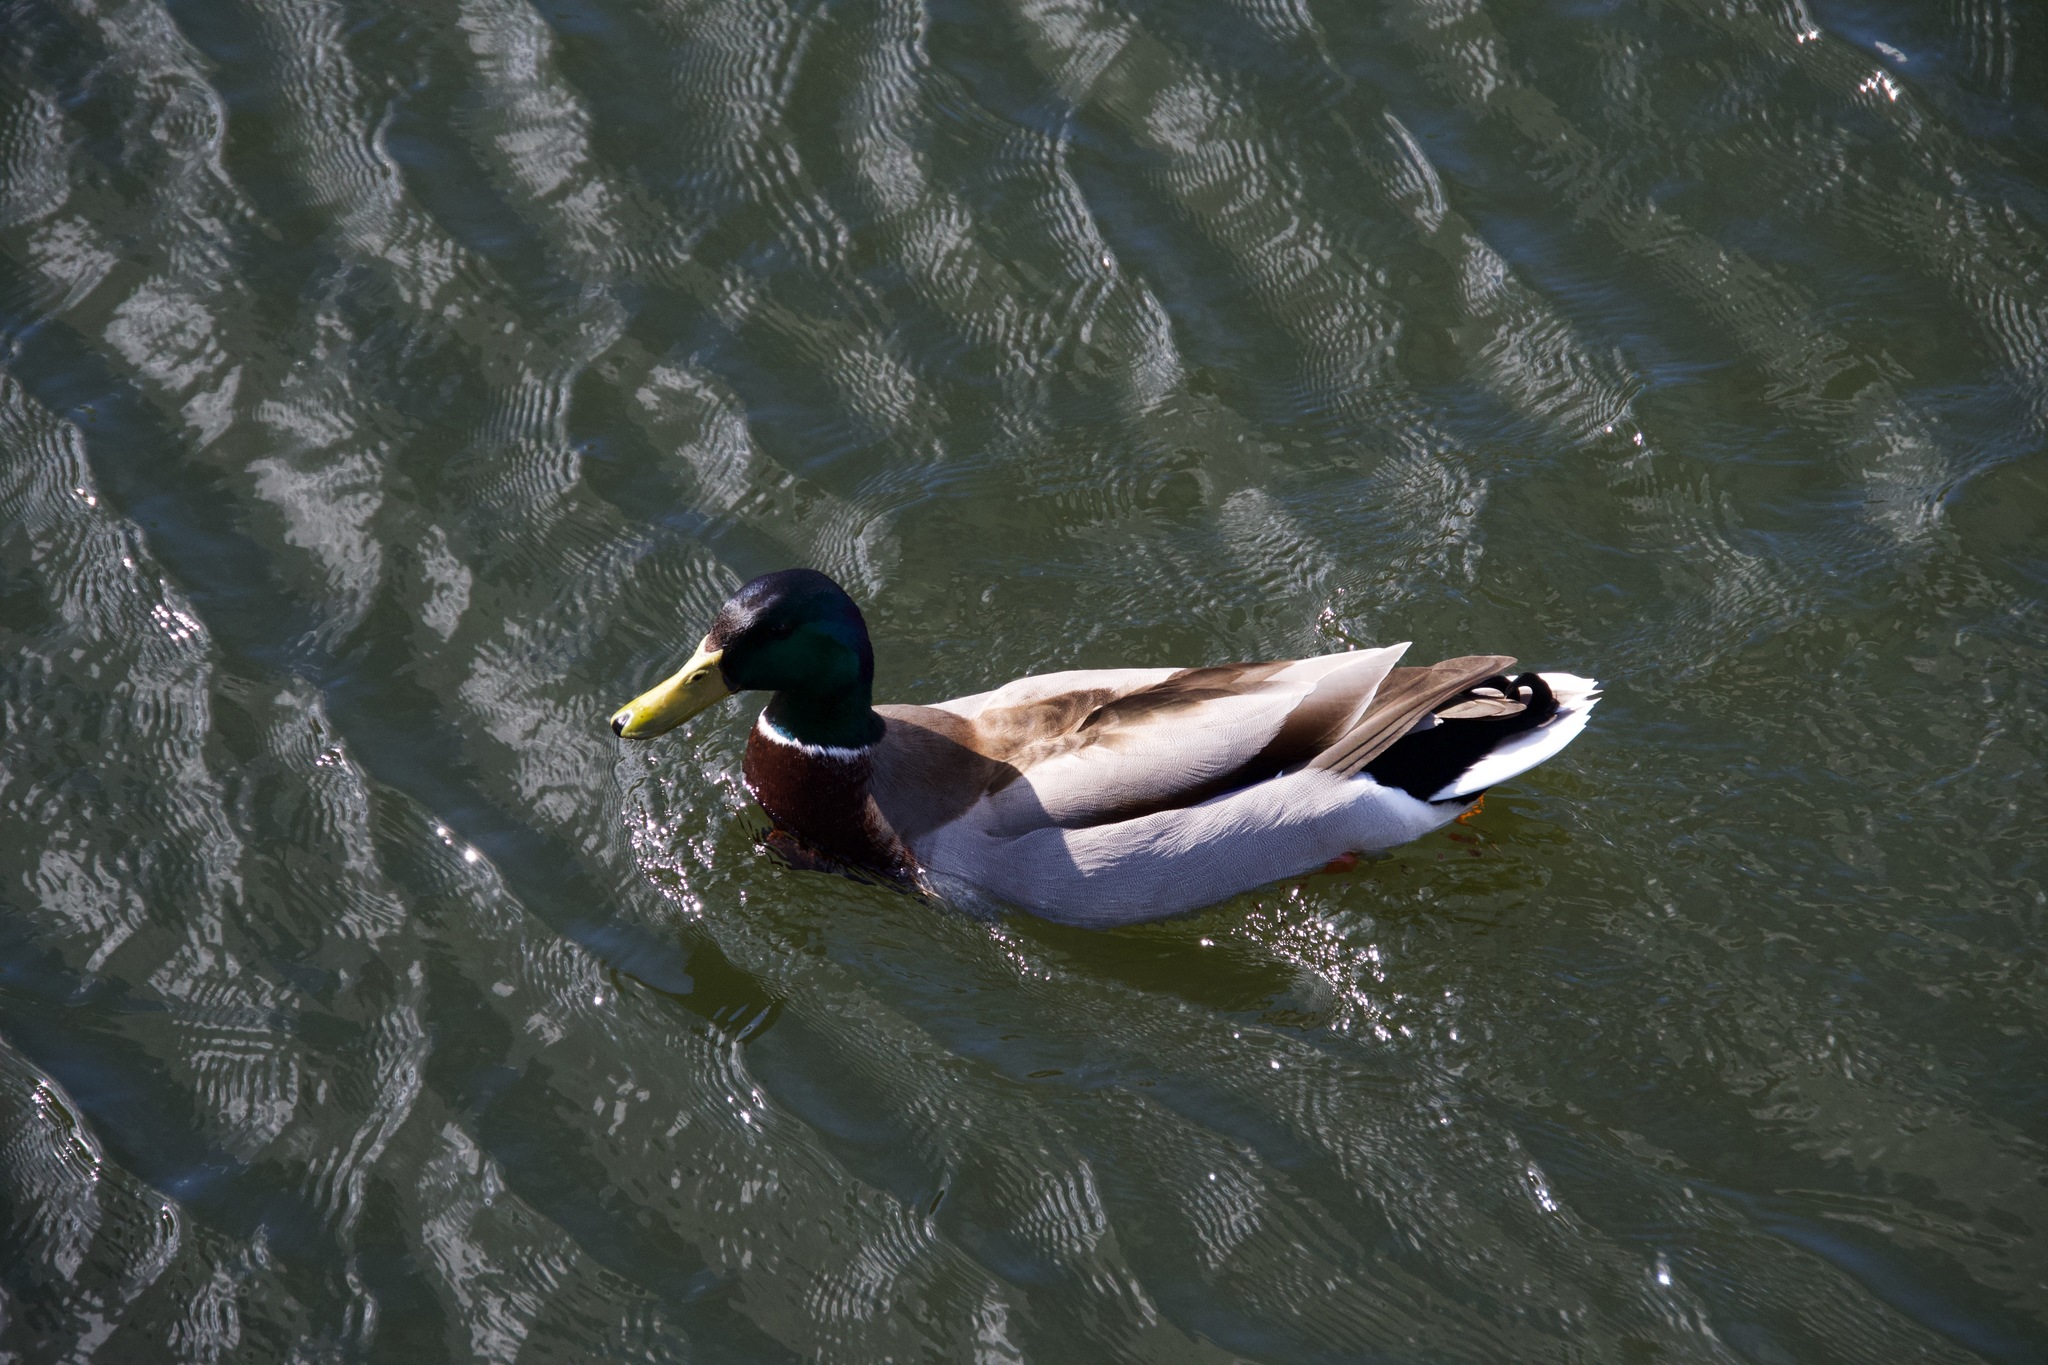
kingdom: Animalia
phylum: Chordata
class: Aves
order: Anseriformes
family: Anatidae
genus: Anas
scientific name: Anas platyrhynchos
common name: Mallard
